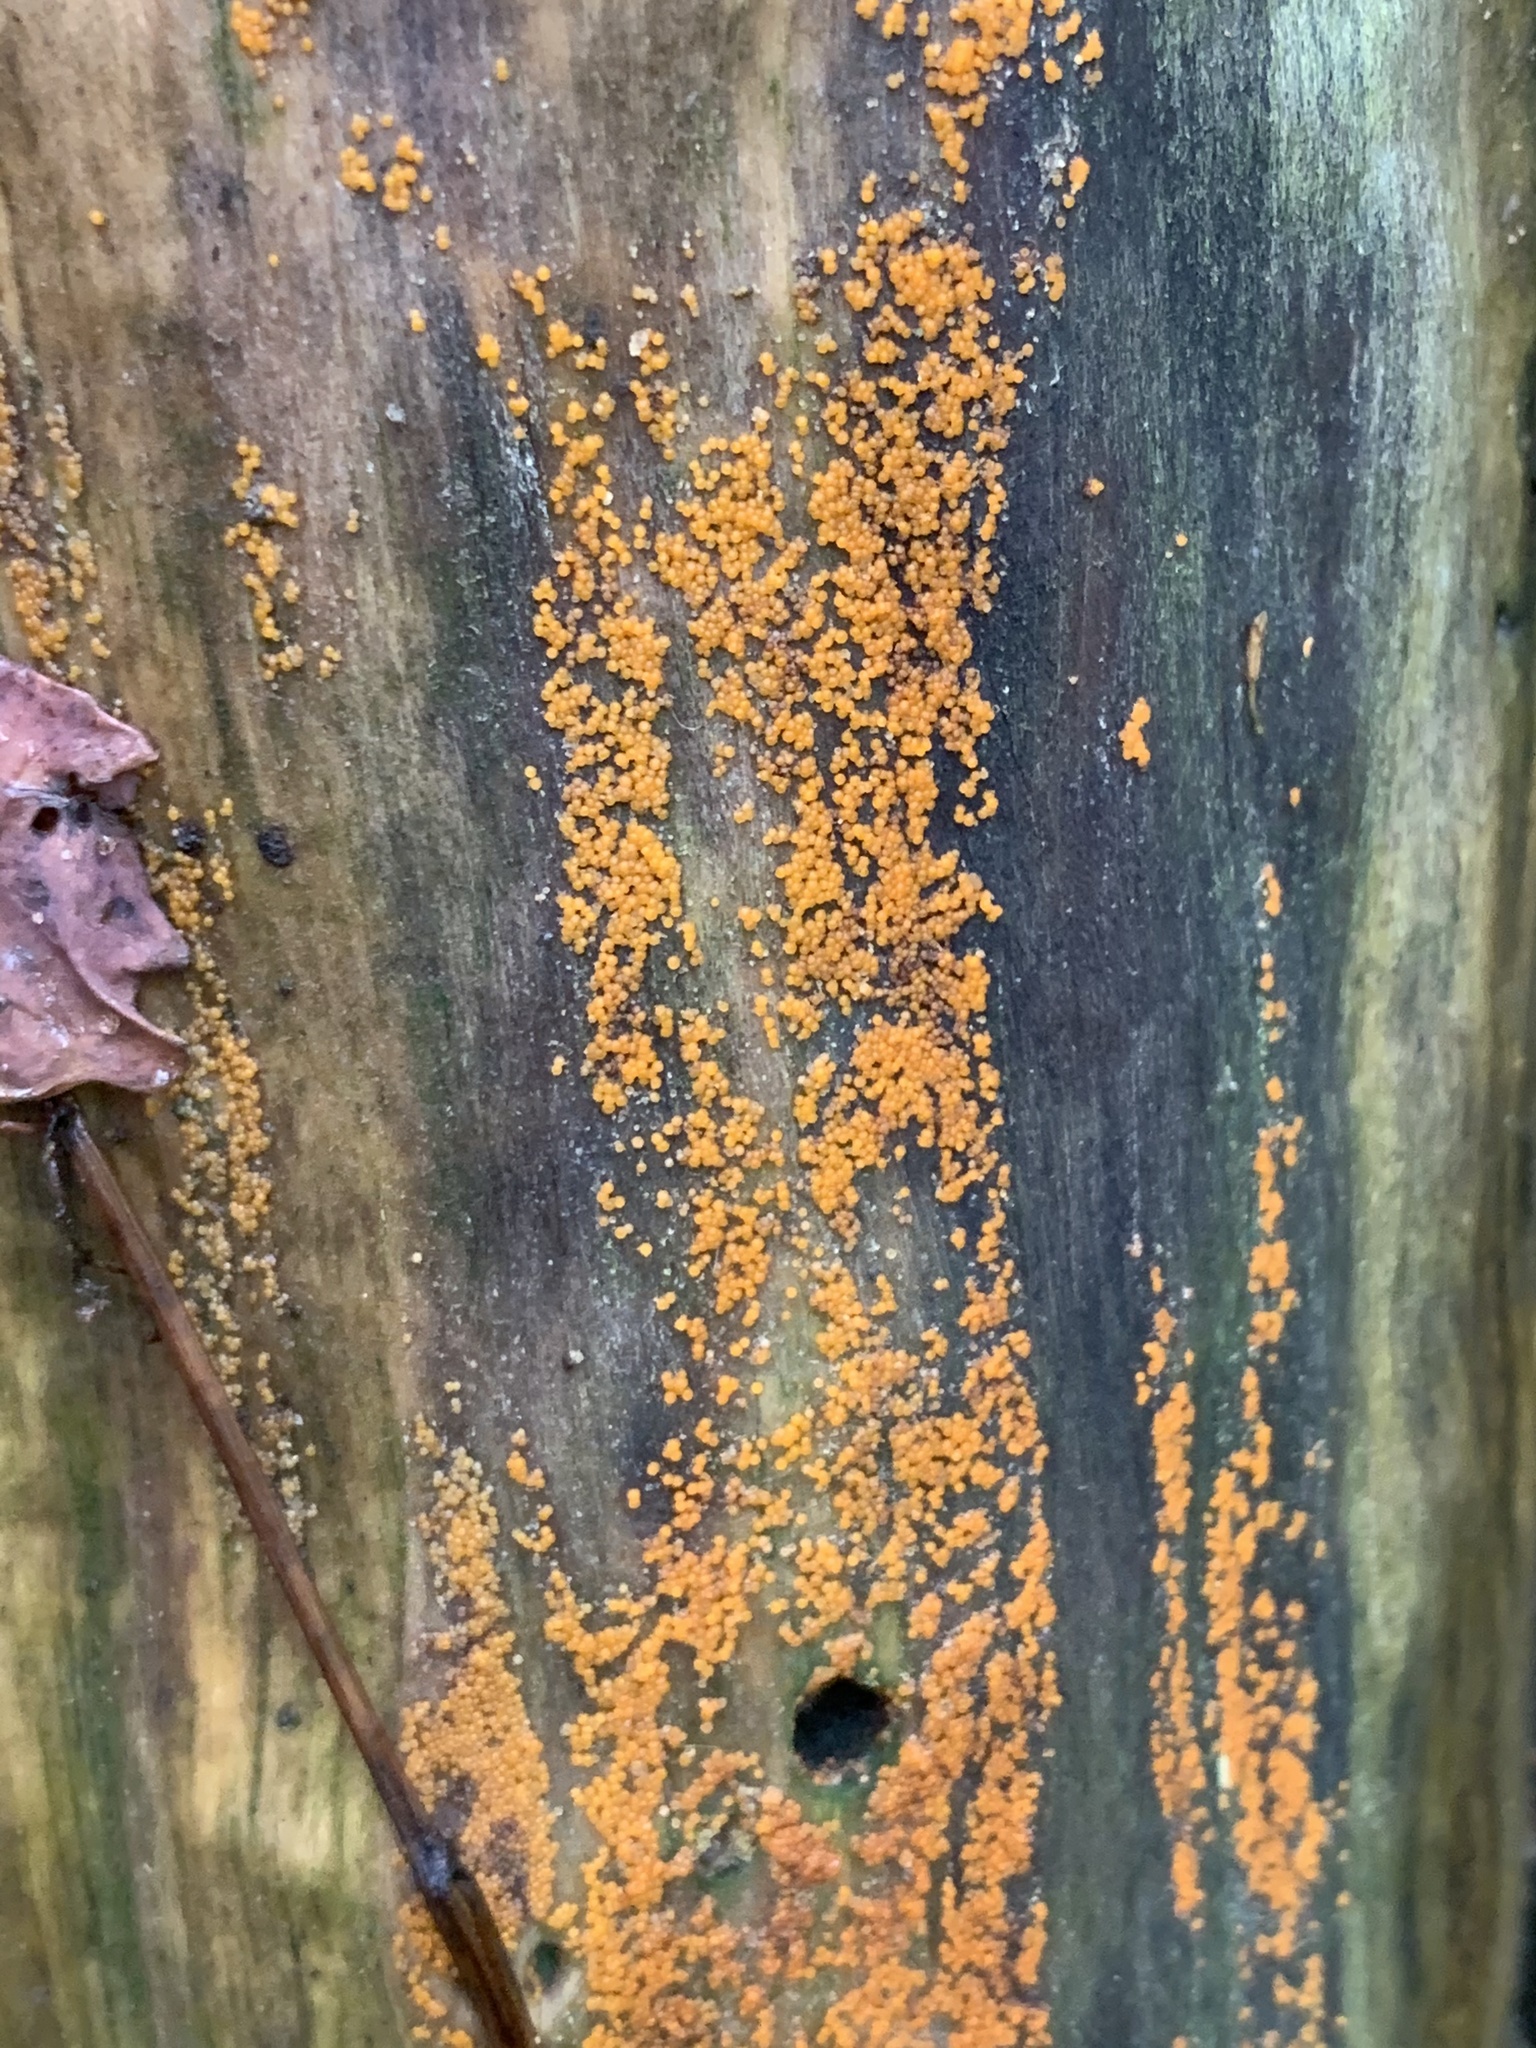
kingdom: Fungi
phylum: Ascomycota
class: Sordariomycetes
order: Hypocreales
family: Nectriaceae
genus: Hydropisphaera
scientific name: Hydropisphaera peziza
